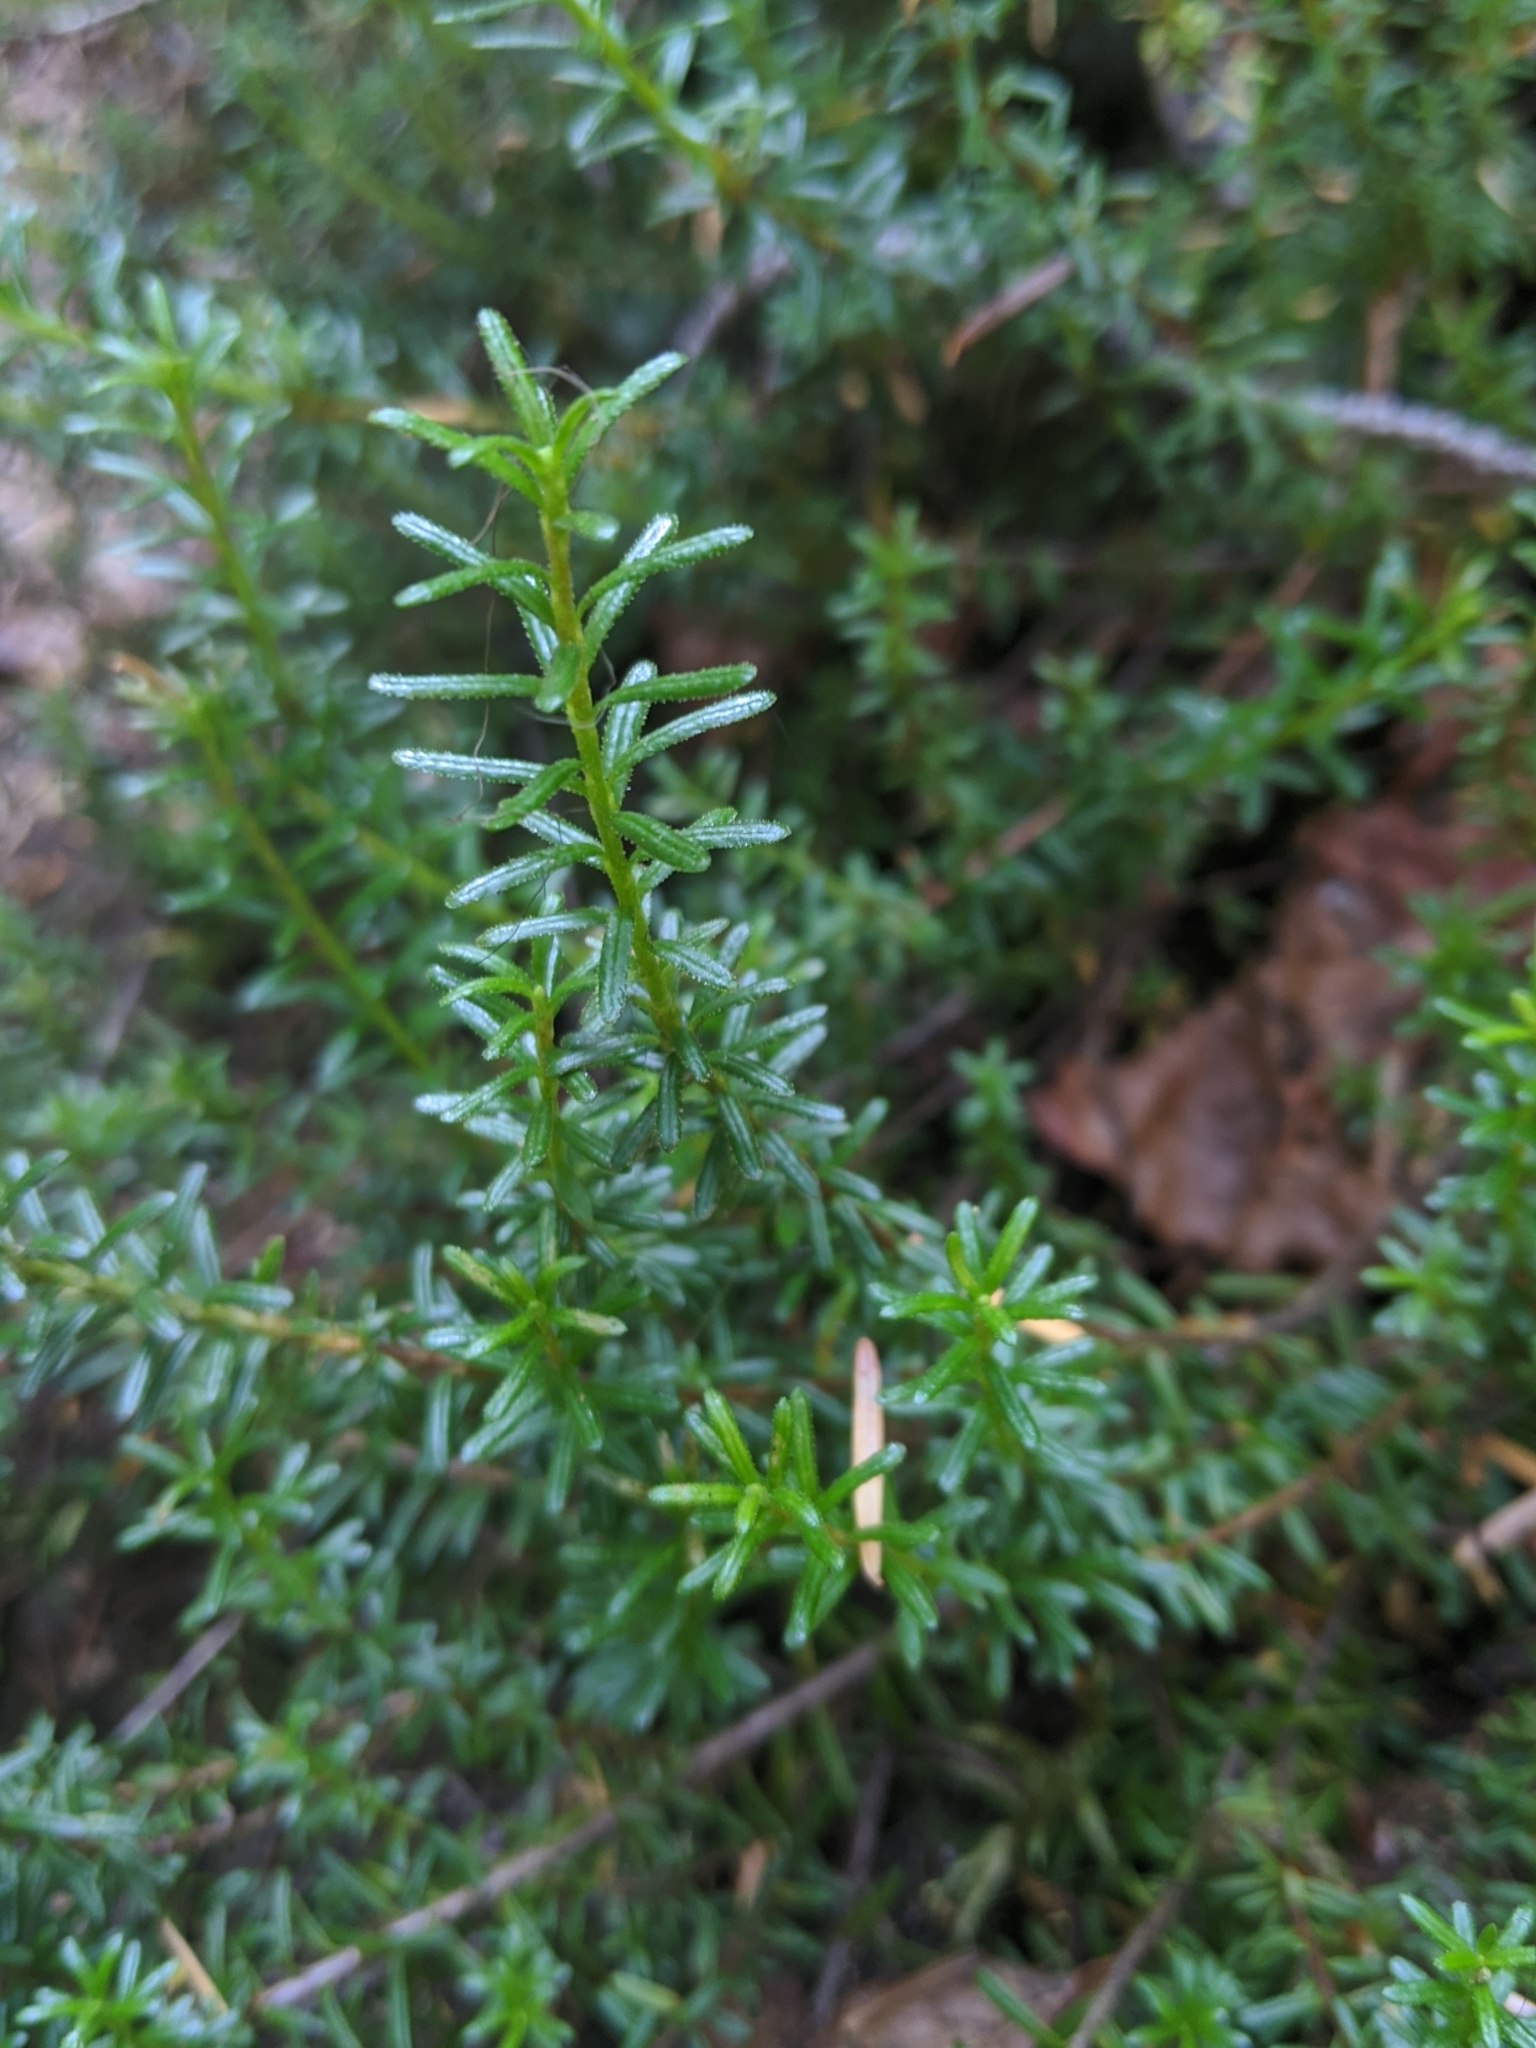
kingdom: Plantae
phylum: Tracheophyta
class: Magnoliopsida
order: Ericales
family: Ericaceae
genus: Empetrum
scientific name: Empetrum nigrum
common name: Black crowberry
